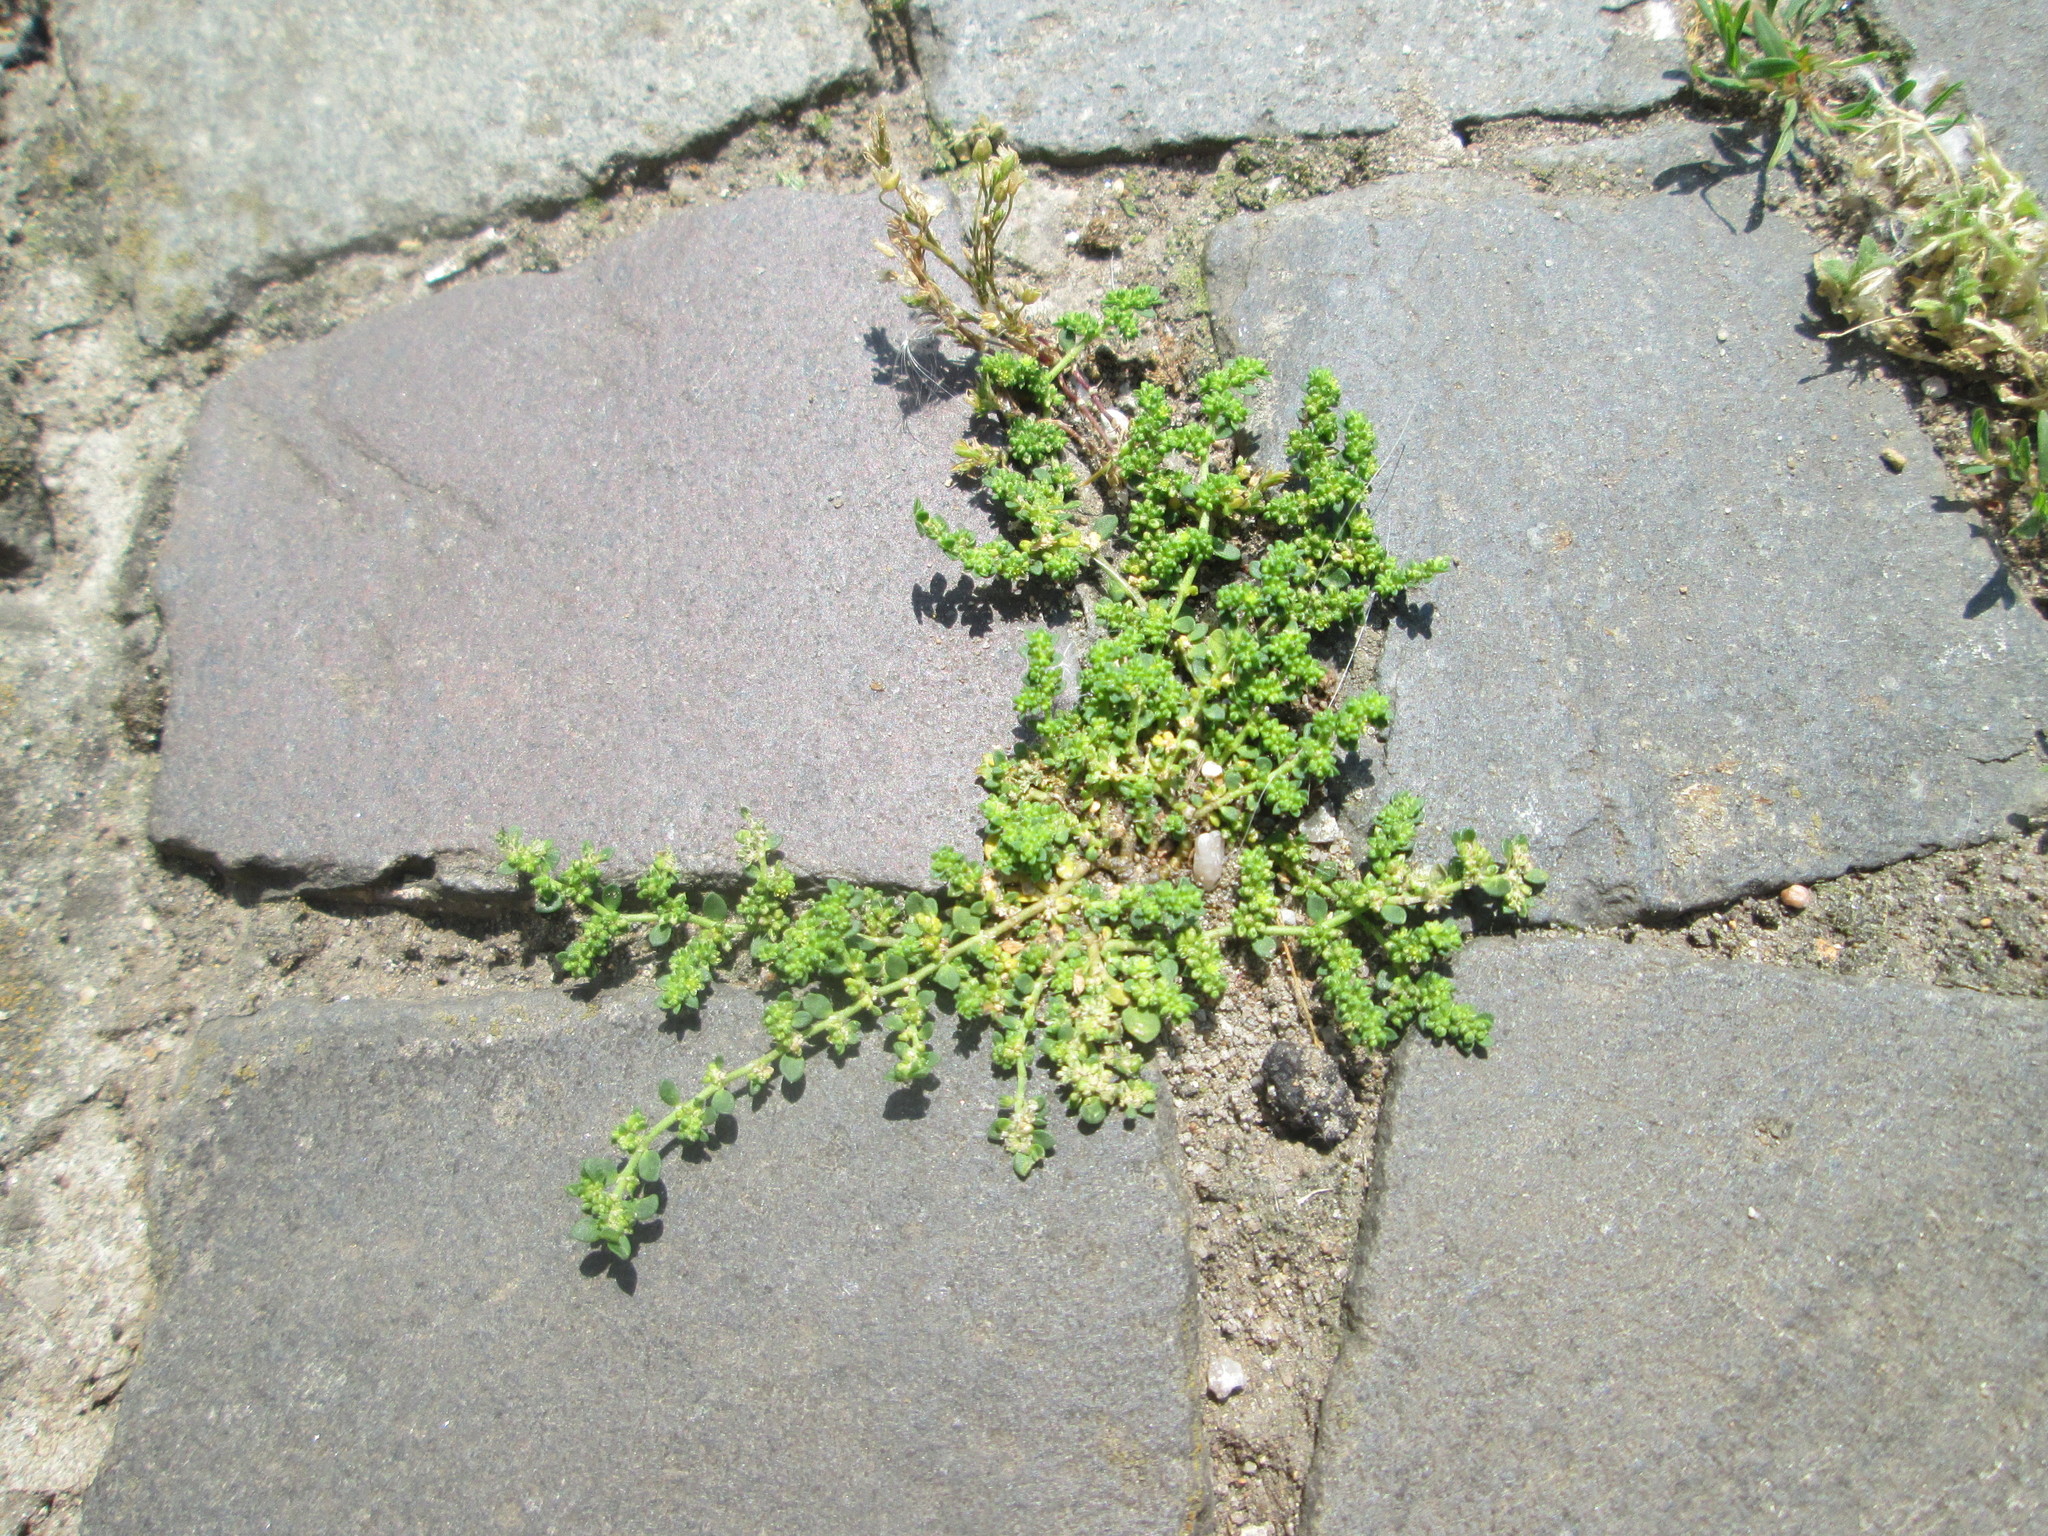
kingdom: Plantae
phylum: Tracheophyta
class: Magnoliopsida
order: Caryophyllales
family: Caryophyllaceae
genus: Herniaria
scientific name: Herniaria glabra
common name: Smooth rupturewort
